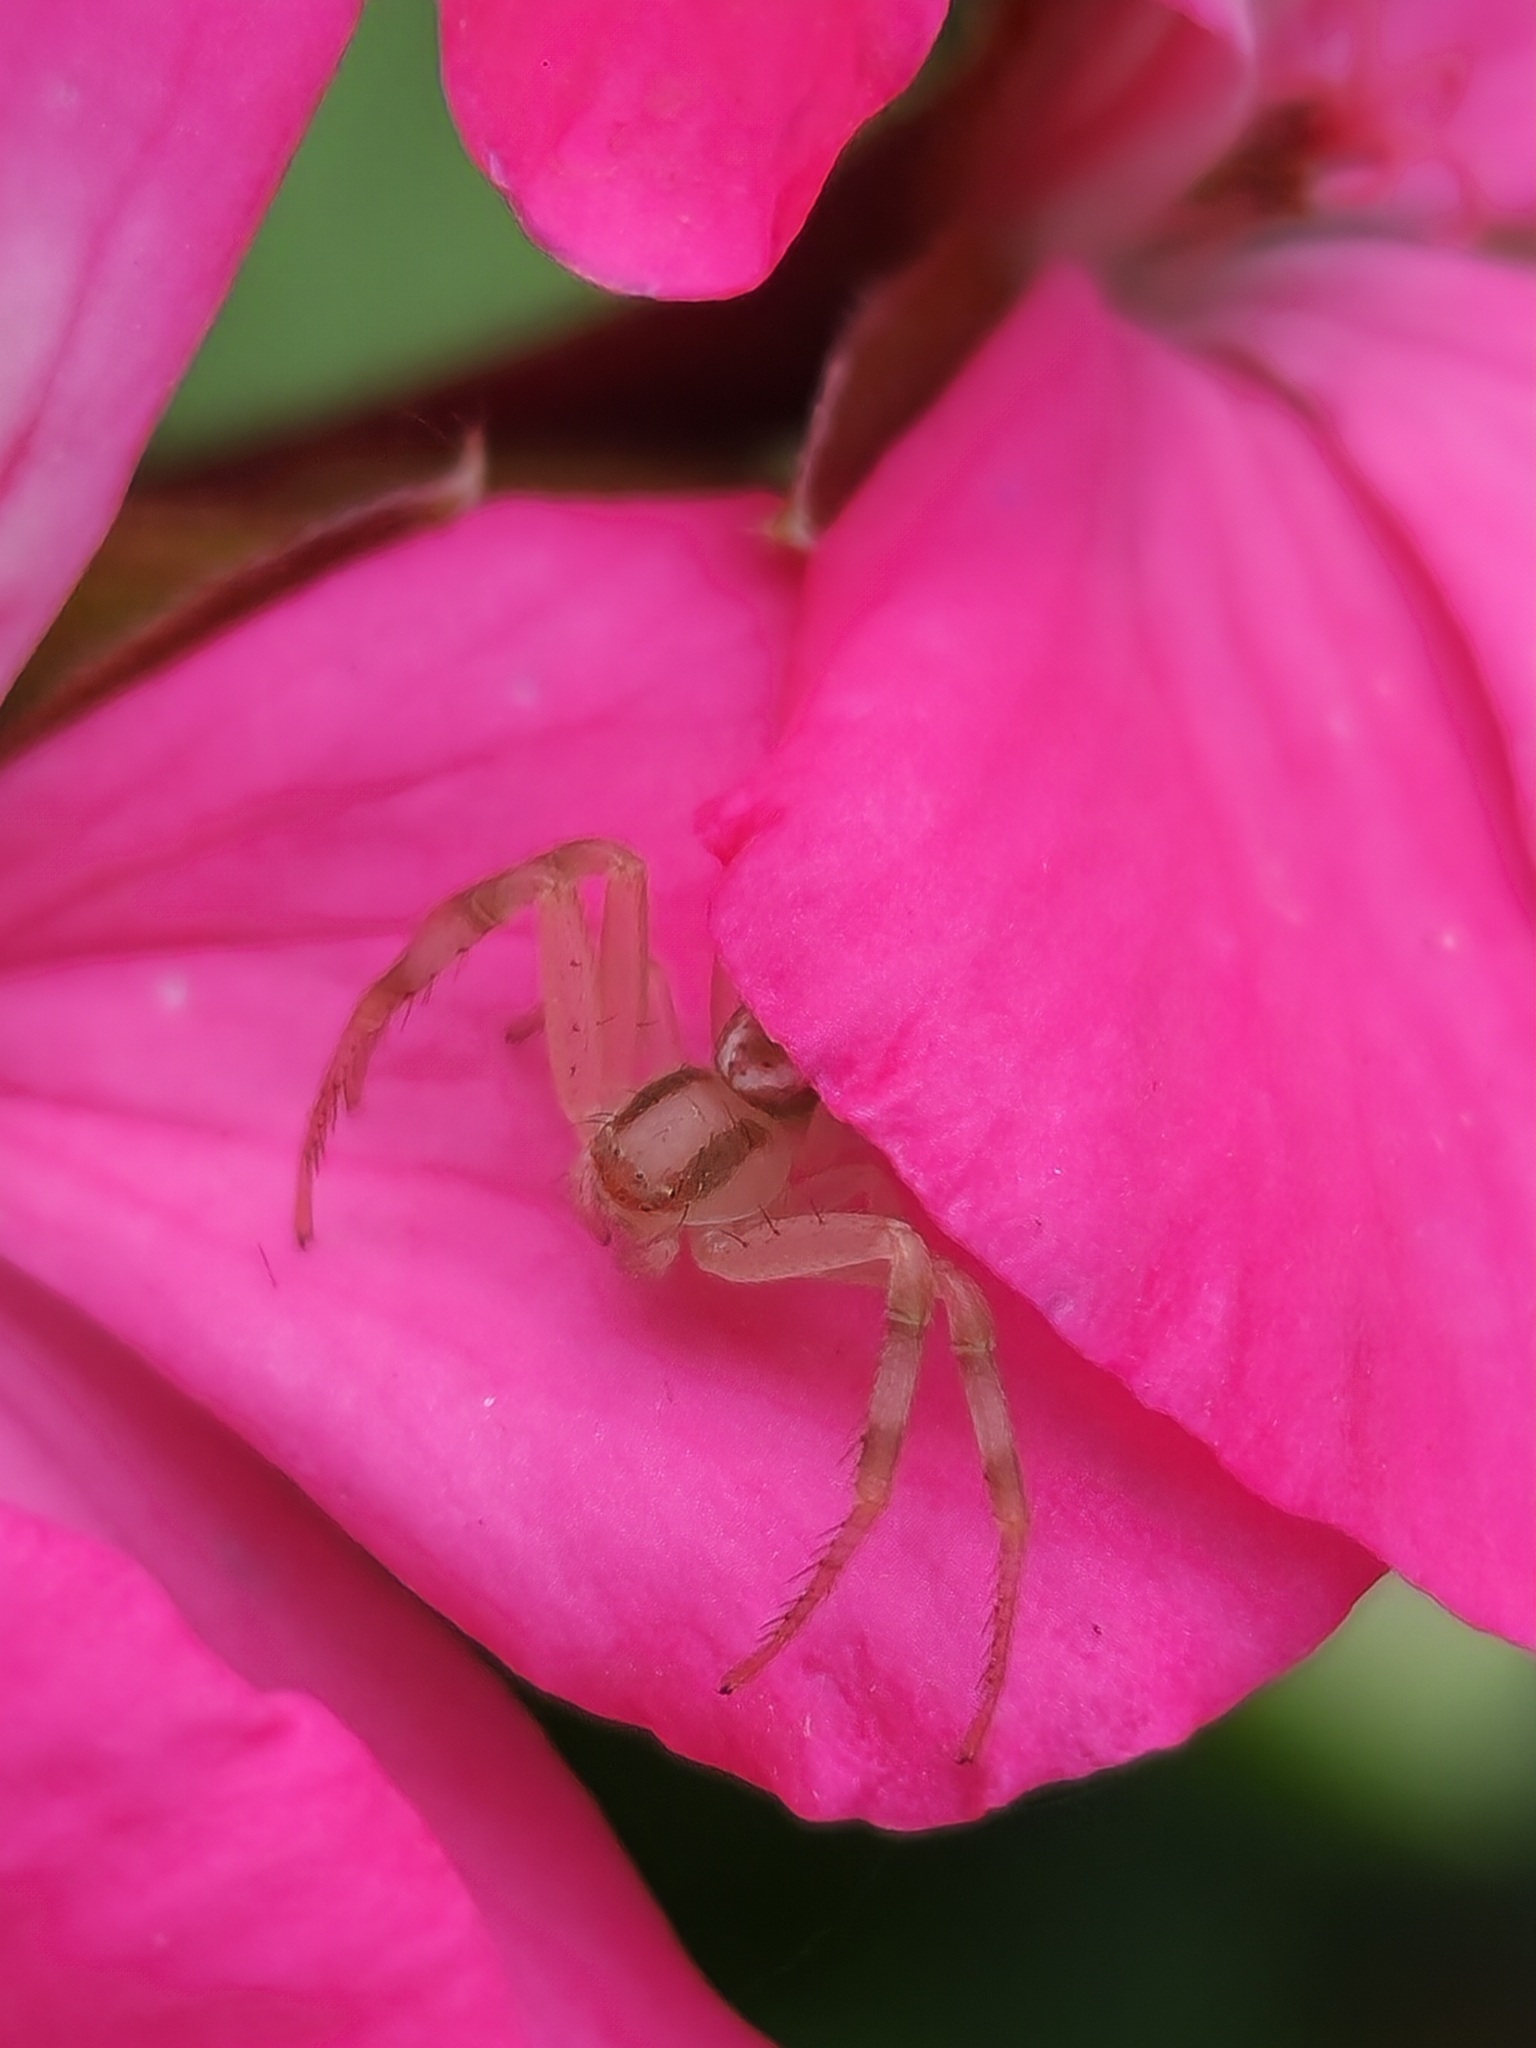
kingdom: Animalia
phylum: Arthropoda
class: Arachnida
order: Araneae
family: Thomisidae
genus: Misumenops
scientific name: Misumenops
